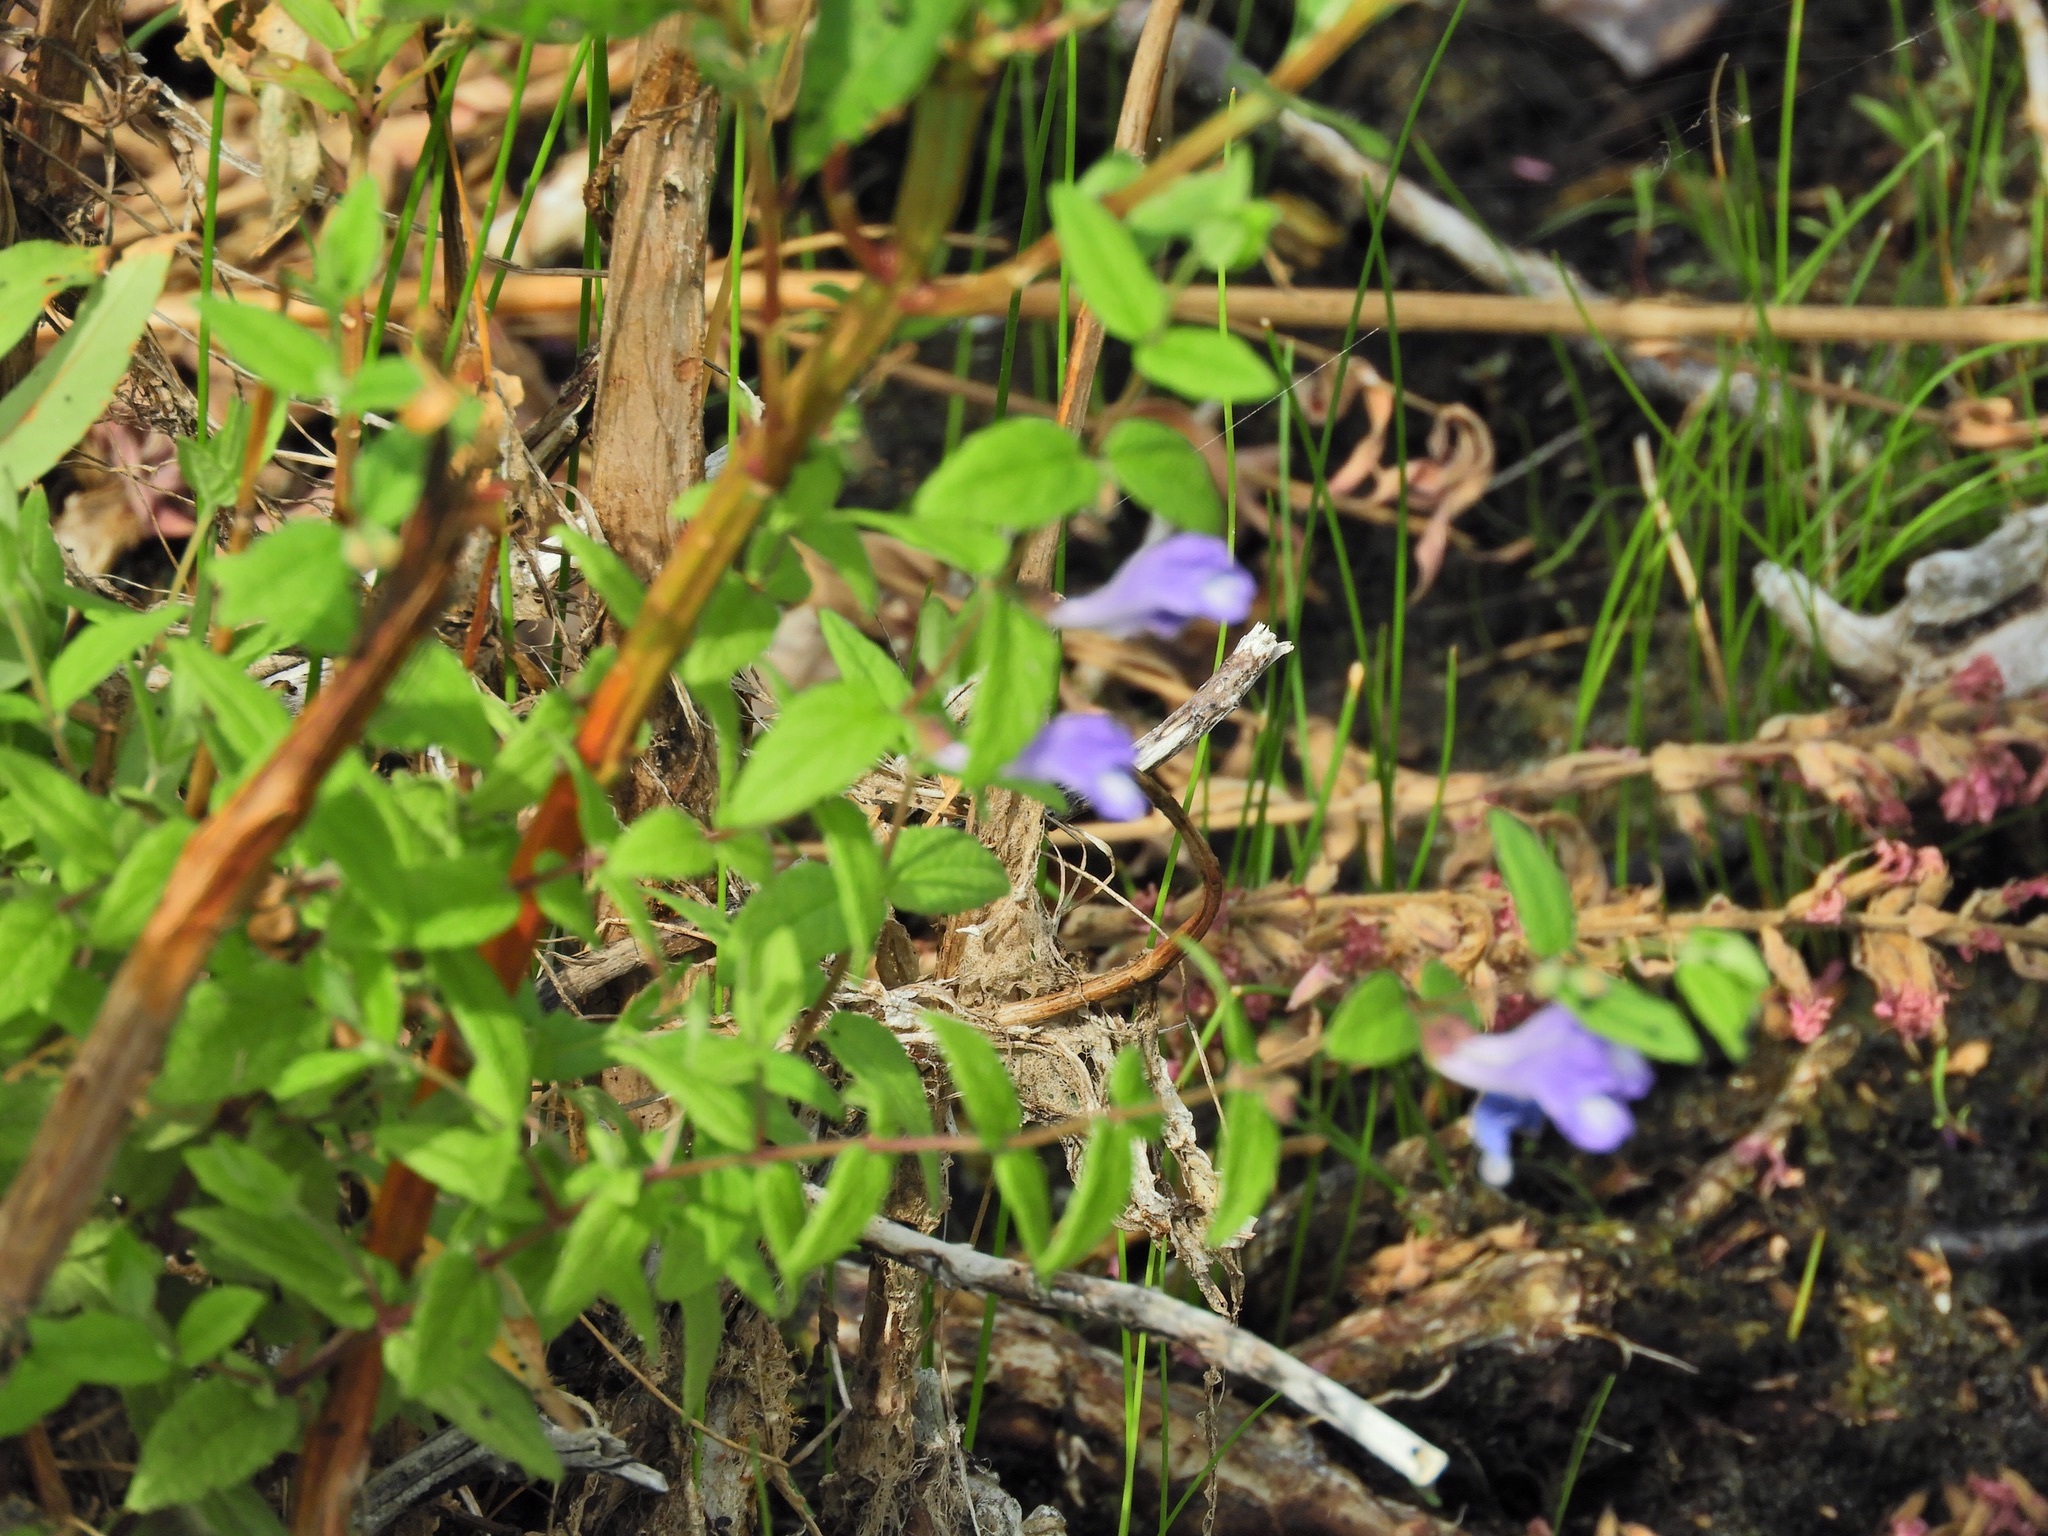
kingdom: Plantae
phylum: Tracheophyta
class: Magnoliopsida
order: Lamiales
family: Lamiaceae
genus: Scutellaria
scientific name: Scutellaria galericulata
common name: Skullcap
